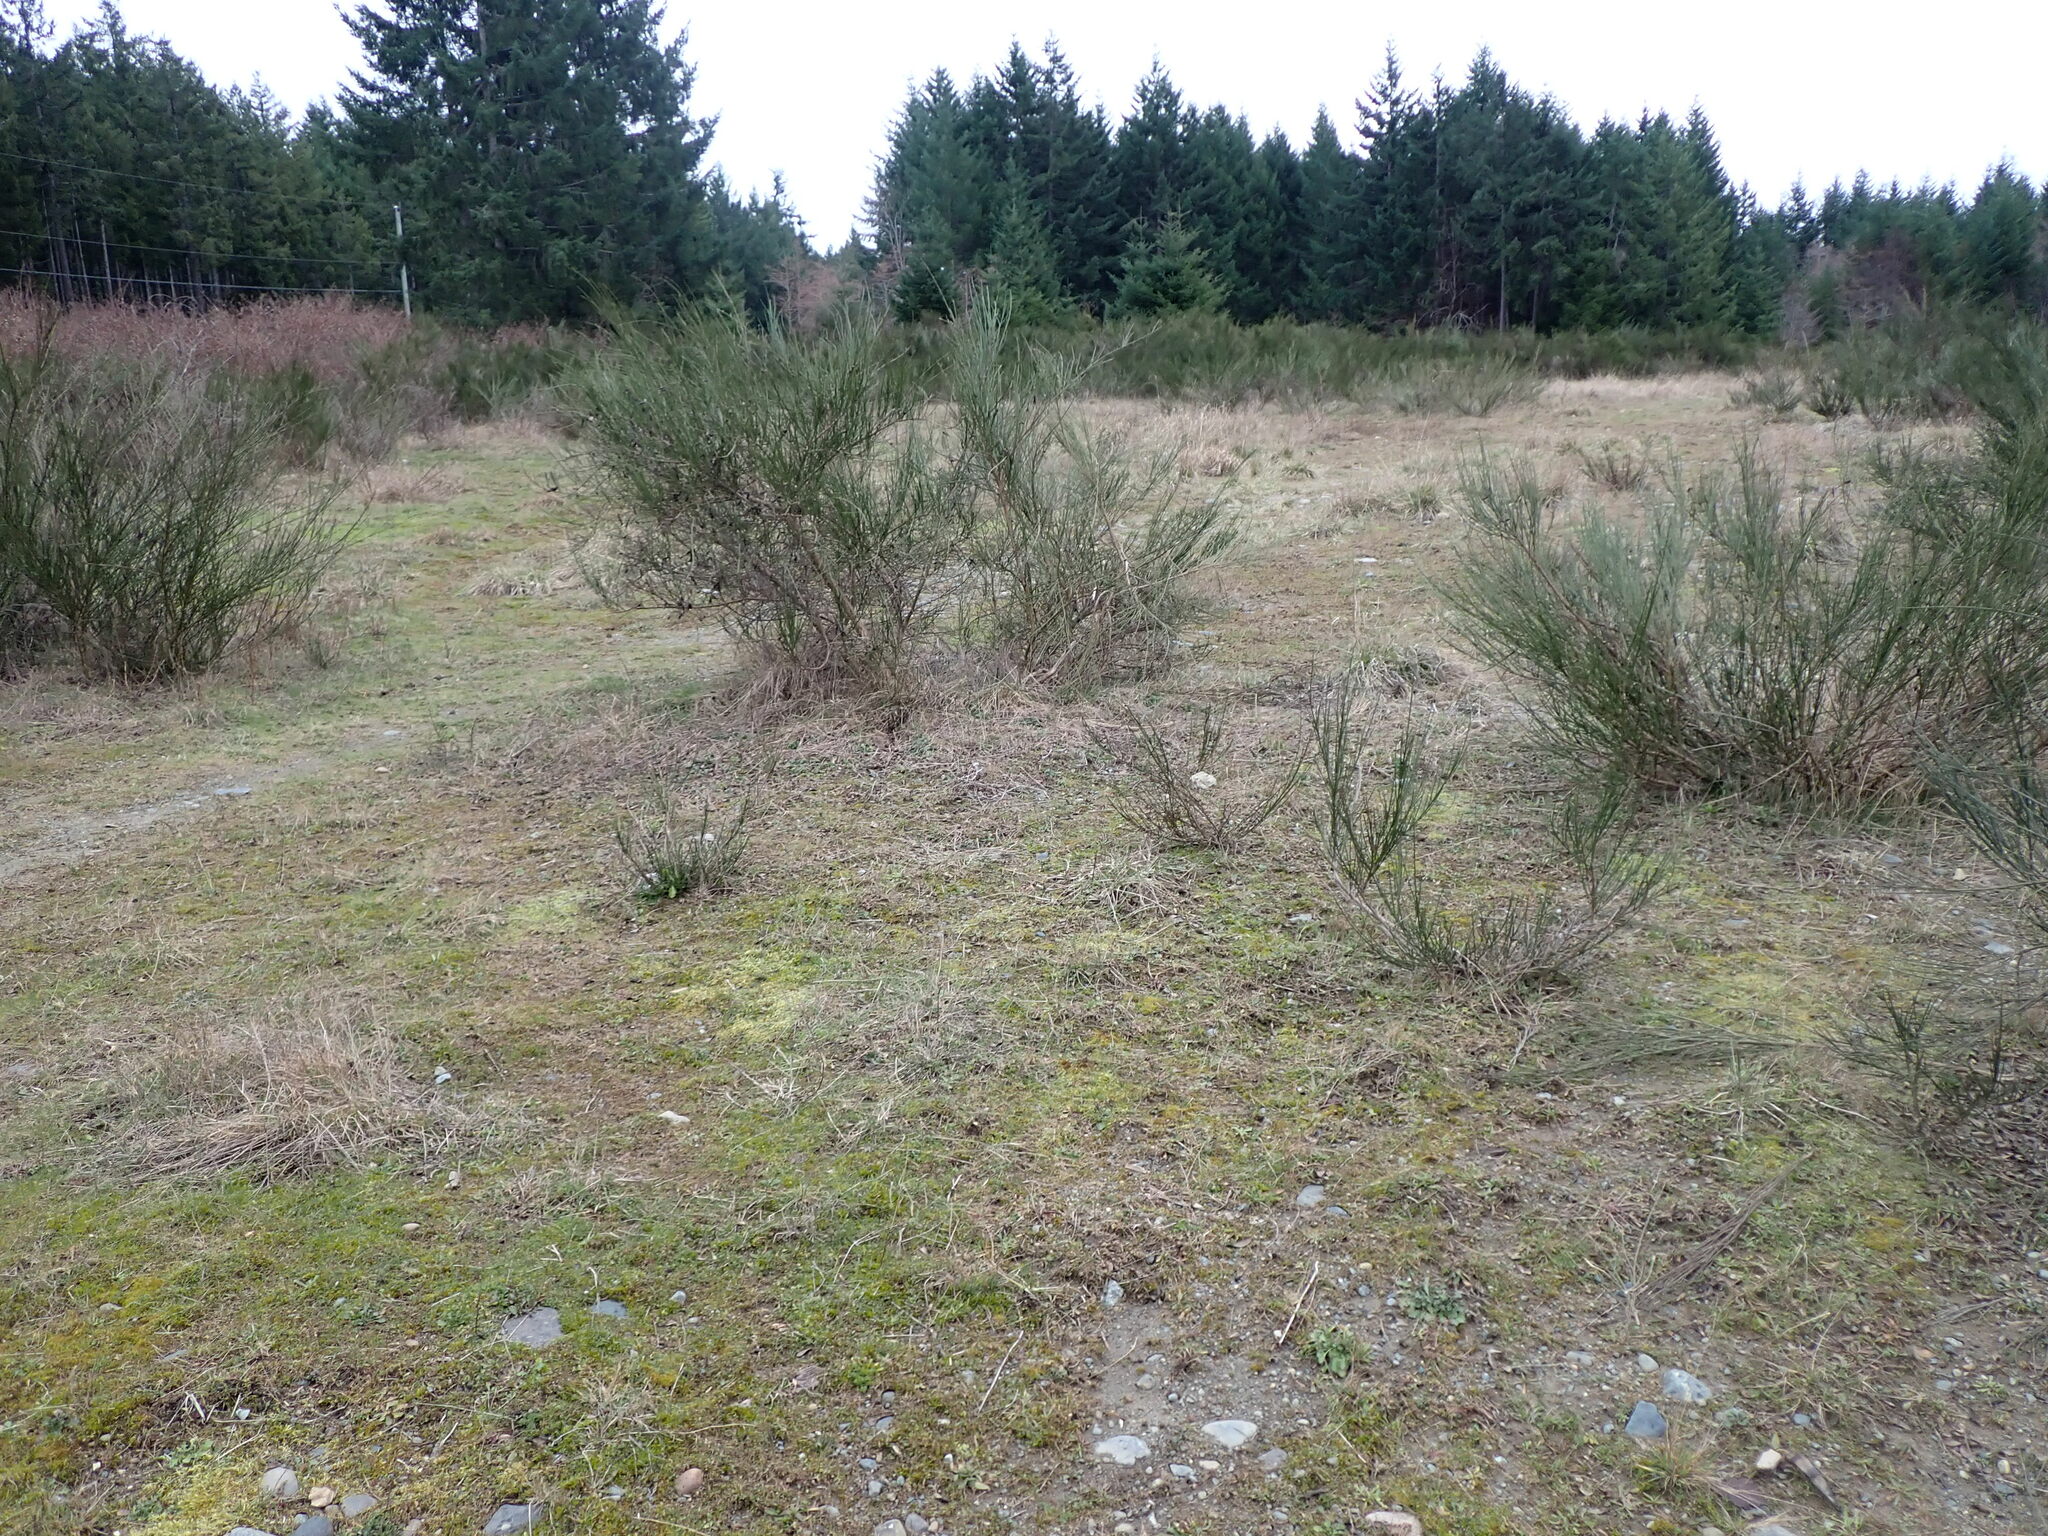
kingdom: Plantae
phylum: Tracheophyta
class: Magnoliopsida
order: Fabales
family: Fabaceae
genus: Cytisus
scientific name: Cytisus scoparius
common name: Scotch broom
